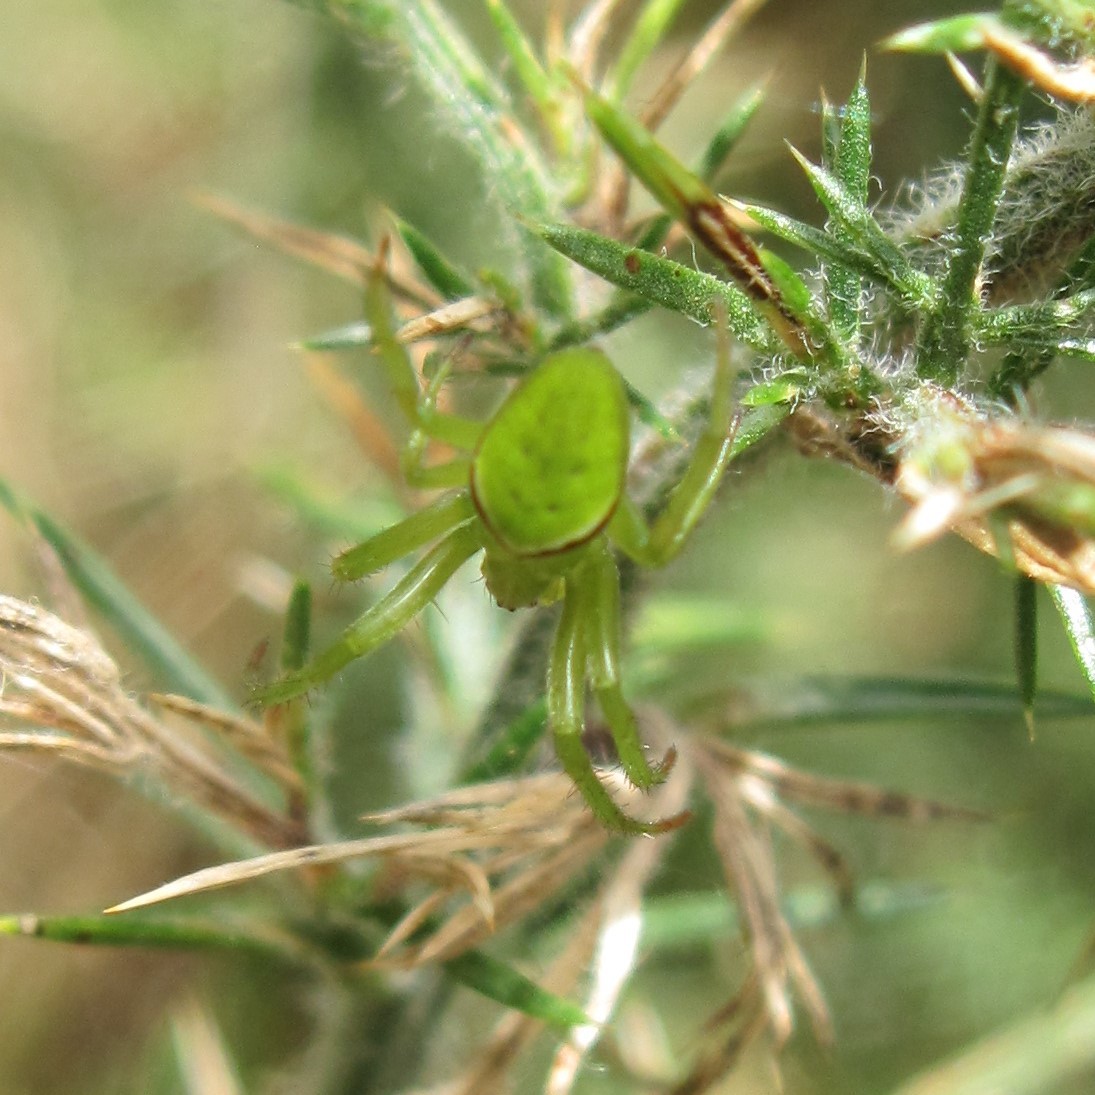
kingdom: Animalia
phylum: Arthropoda
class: Arachnida
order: Araneae
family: Araneidae
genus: Colaranea
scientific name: Colaranea viriditas
